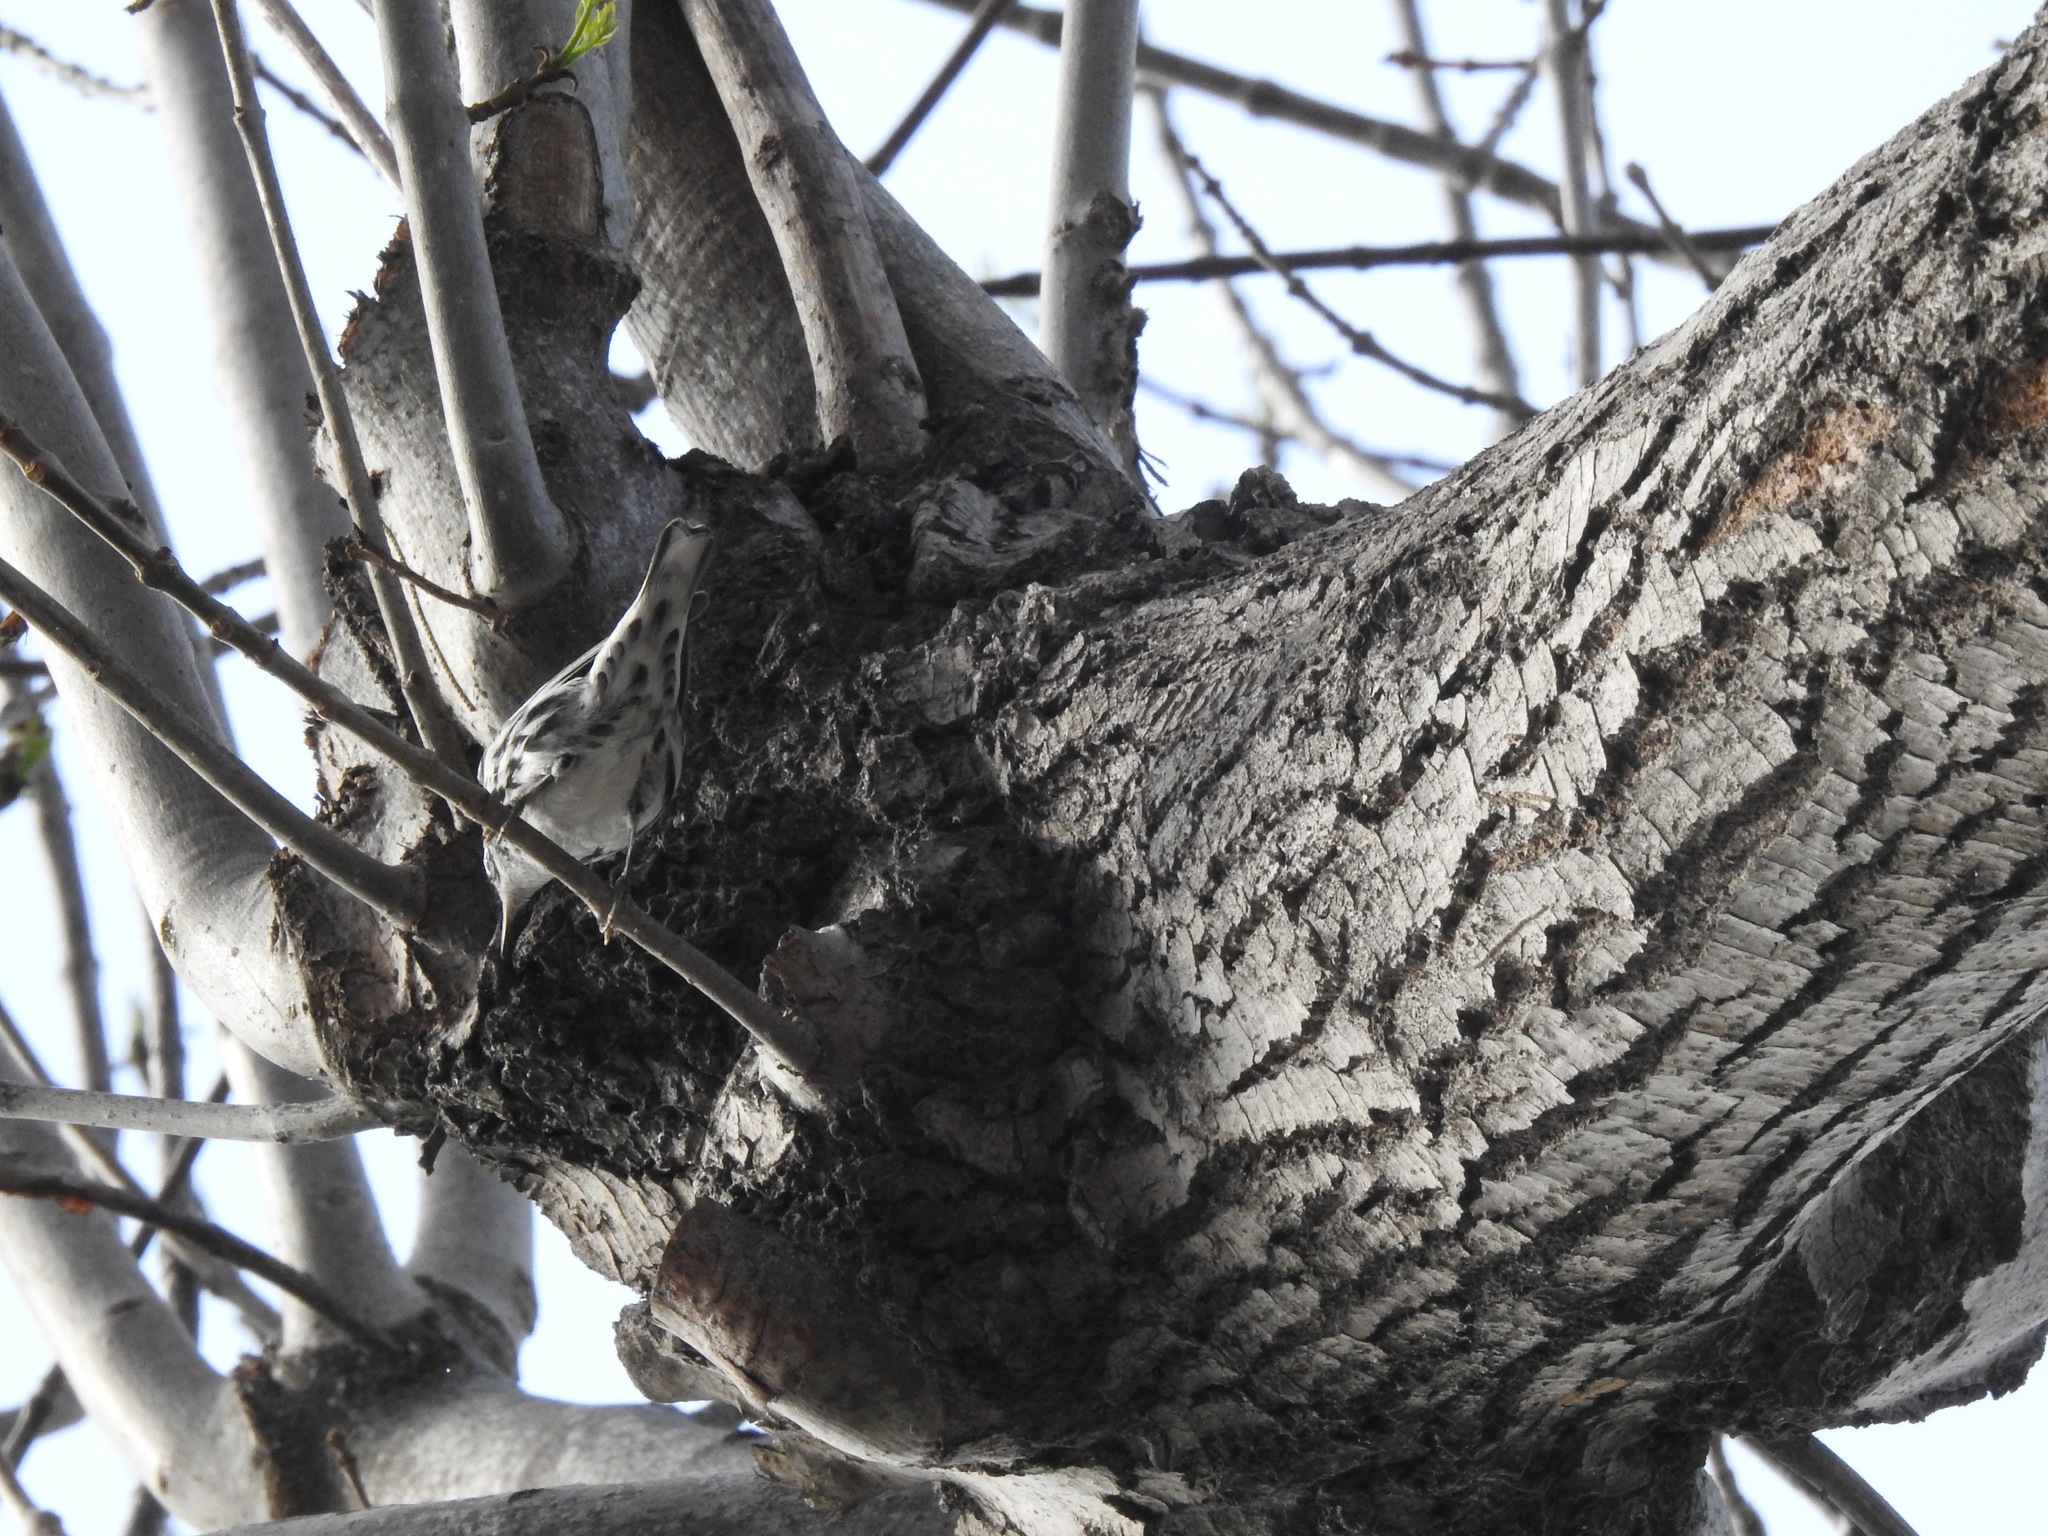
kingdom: Animalia
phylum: Chordata
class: Aves
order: Passeriformes
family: Parulidae
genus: Mniotilta
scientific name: Mniotilta varia
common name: Black-and-white warbler
